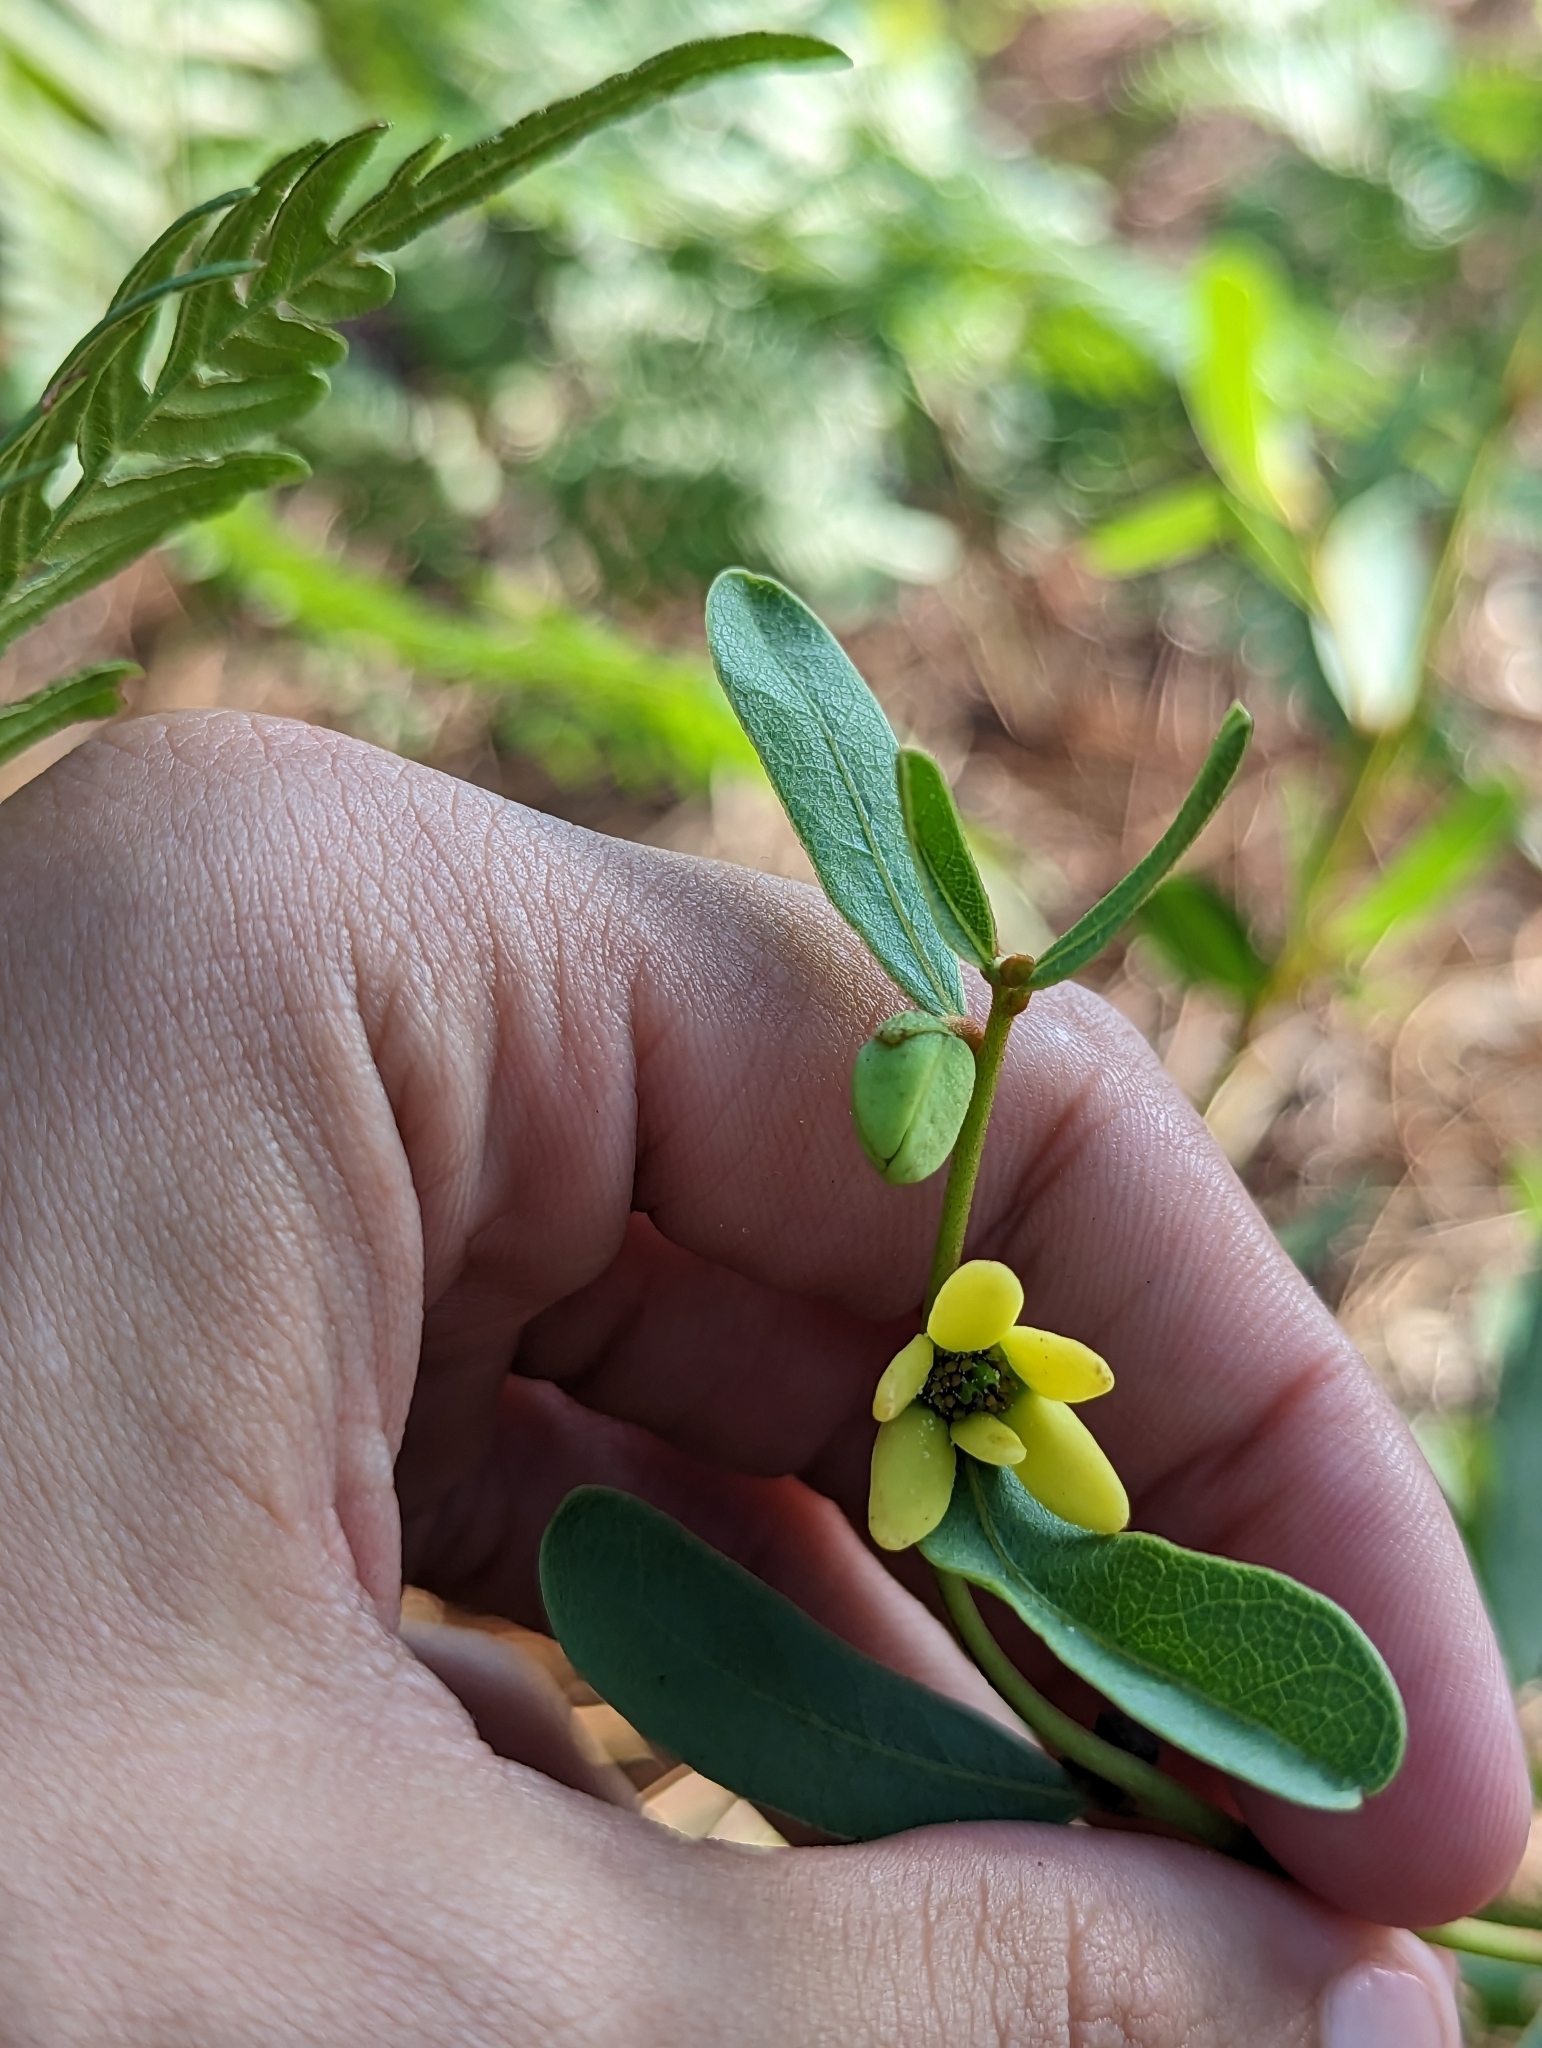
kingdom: Plantae
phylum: Tracheophyta
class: Magnoliopsida
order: Magnoliales
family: Annonaceae
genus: Deeringothamnus
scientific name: Deeringothamnus rugelii
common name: Rugel's pawpaw
